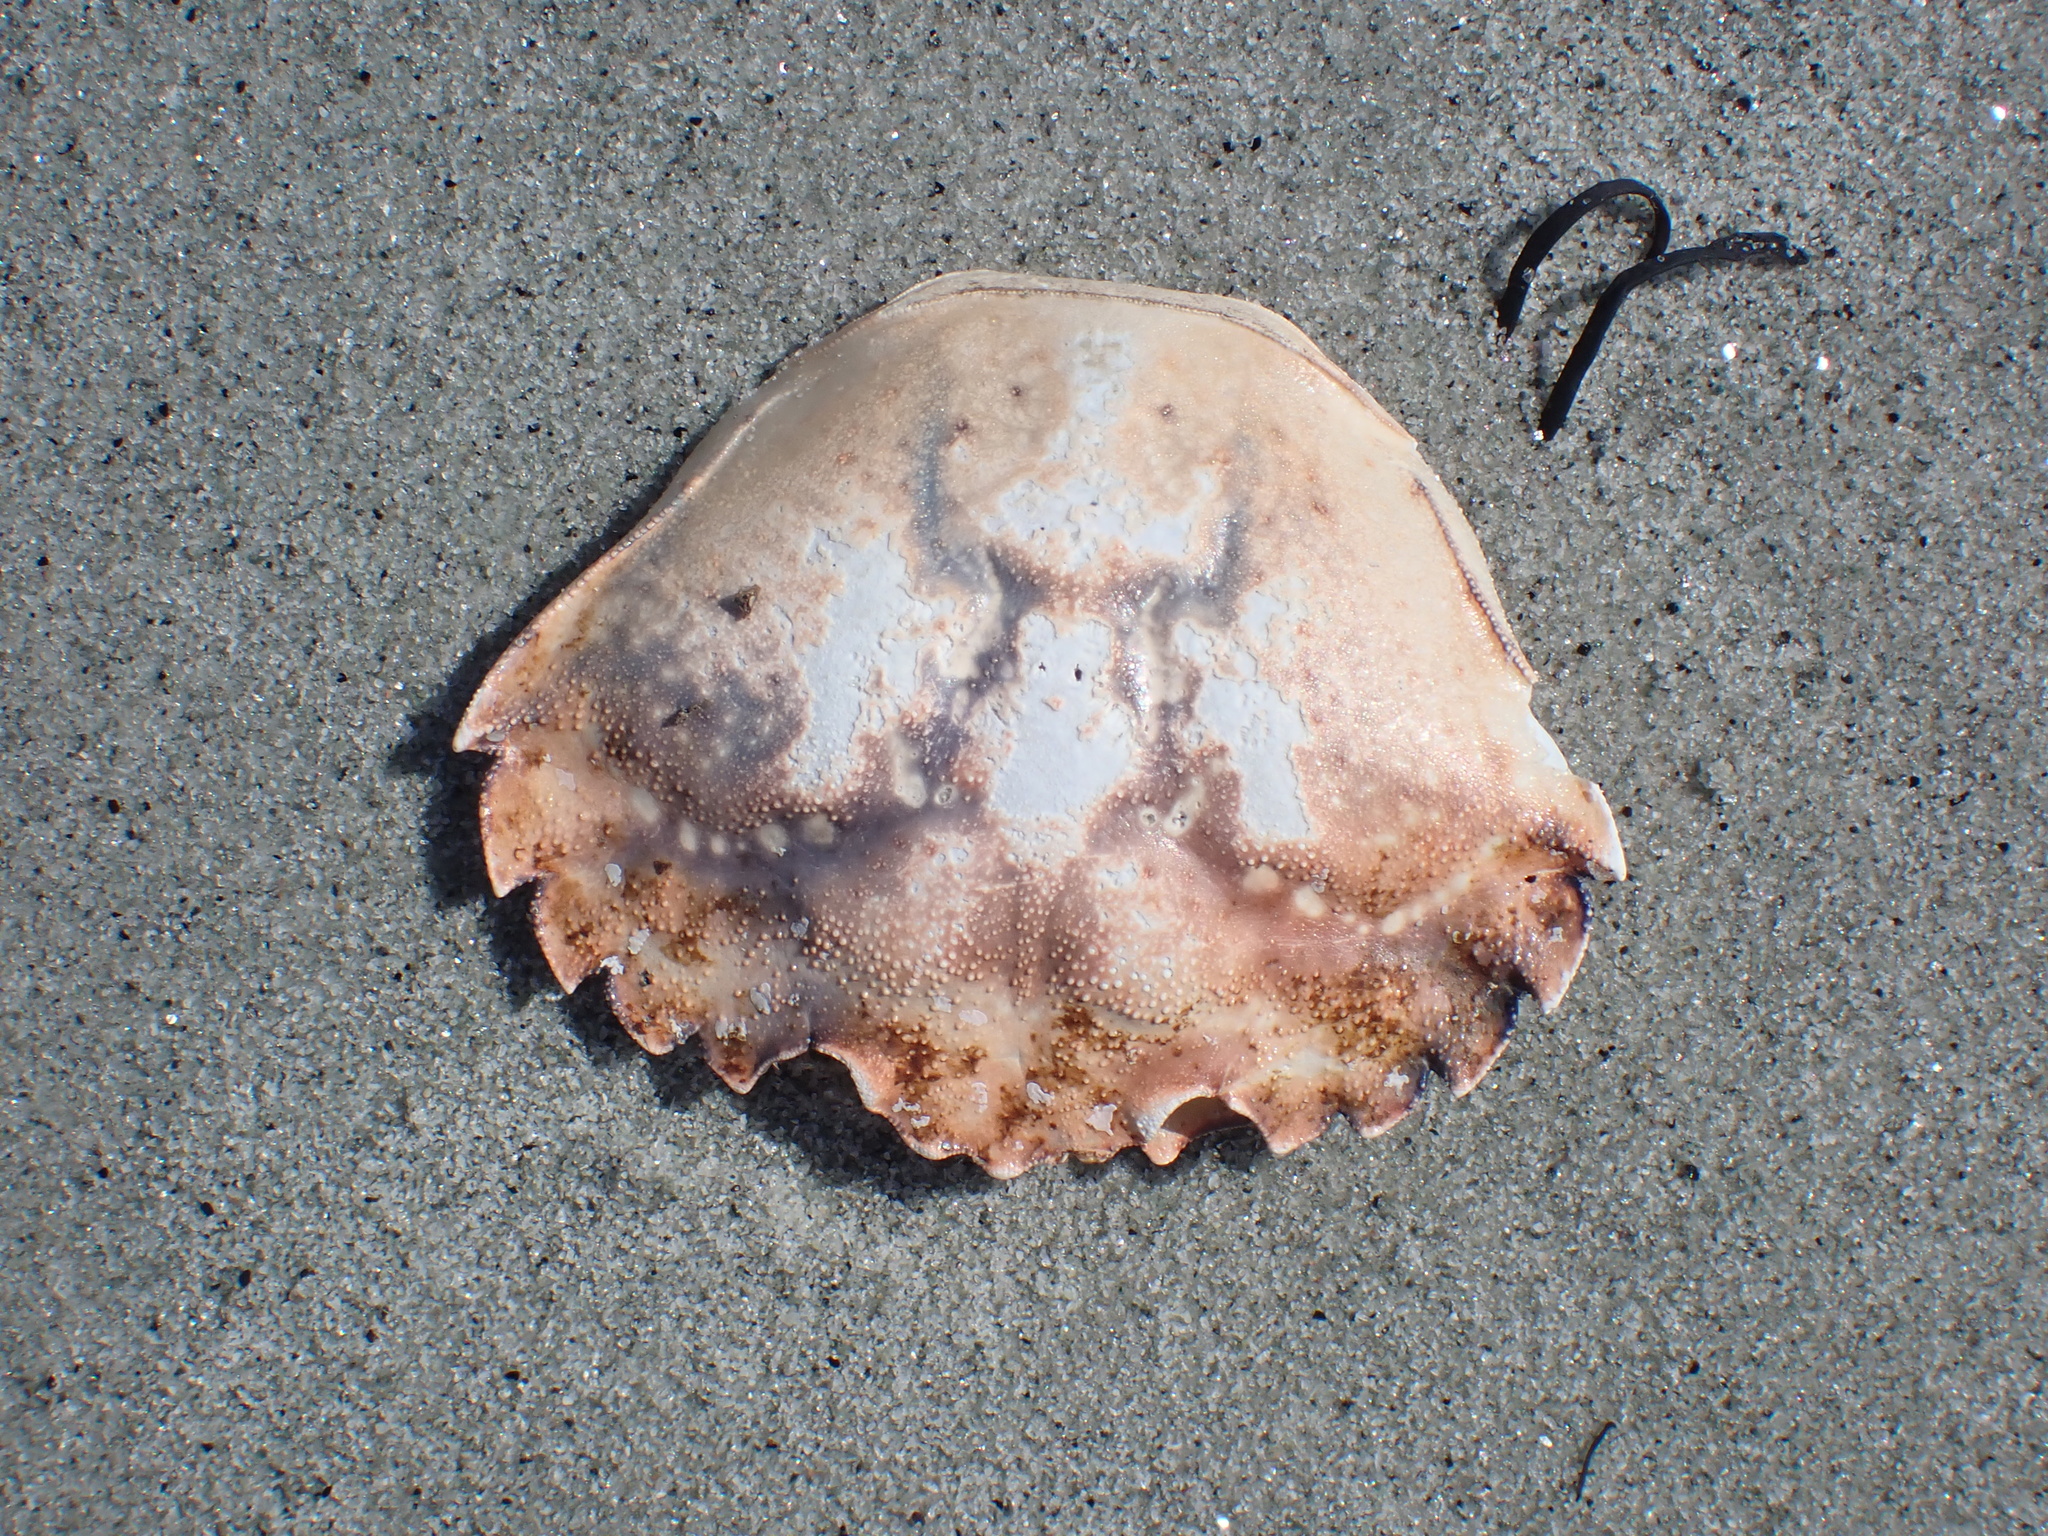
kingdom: Animalia
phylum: Arthropoda
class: Malacostraca
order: Decapoda
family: Carcinidae
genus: Carcinus
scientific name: Carcinus maenas
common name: European green crab
